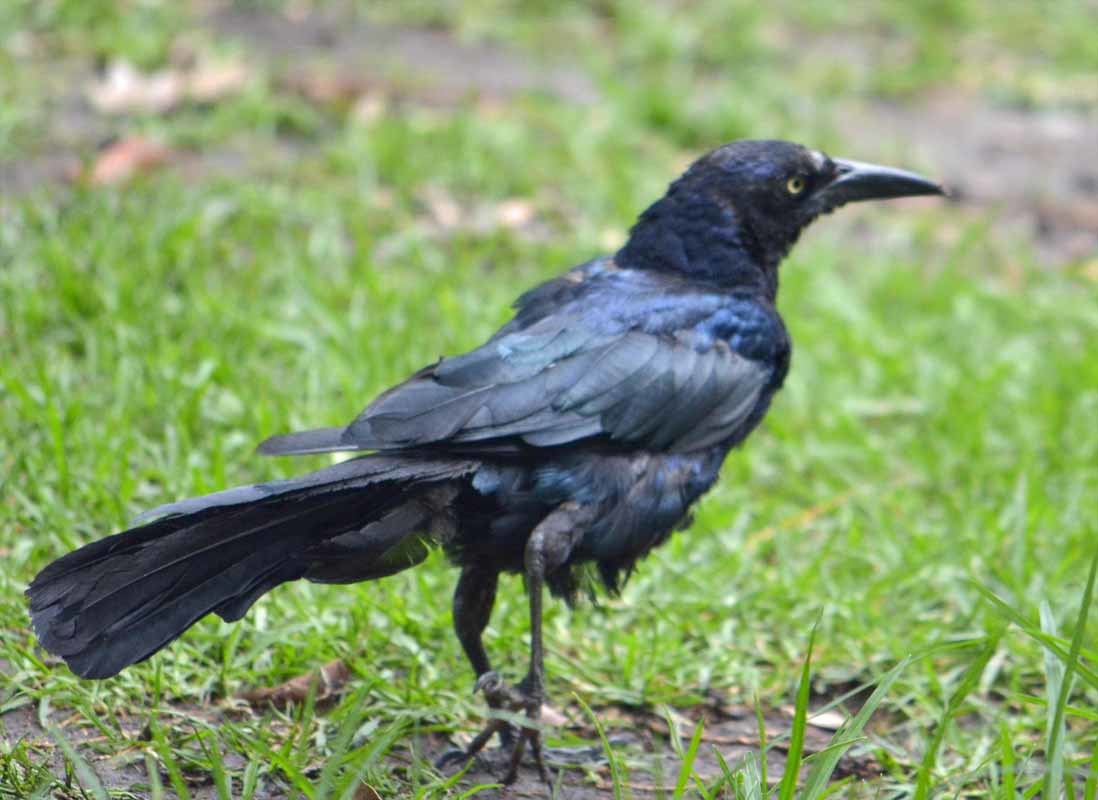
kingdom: Animalia
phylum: Chordata
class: Aves
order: Passeriformes
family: Icteridae
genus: Quiscalus
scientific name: Quiscalus mexicanus
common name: Great-tailed grackle
